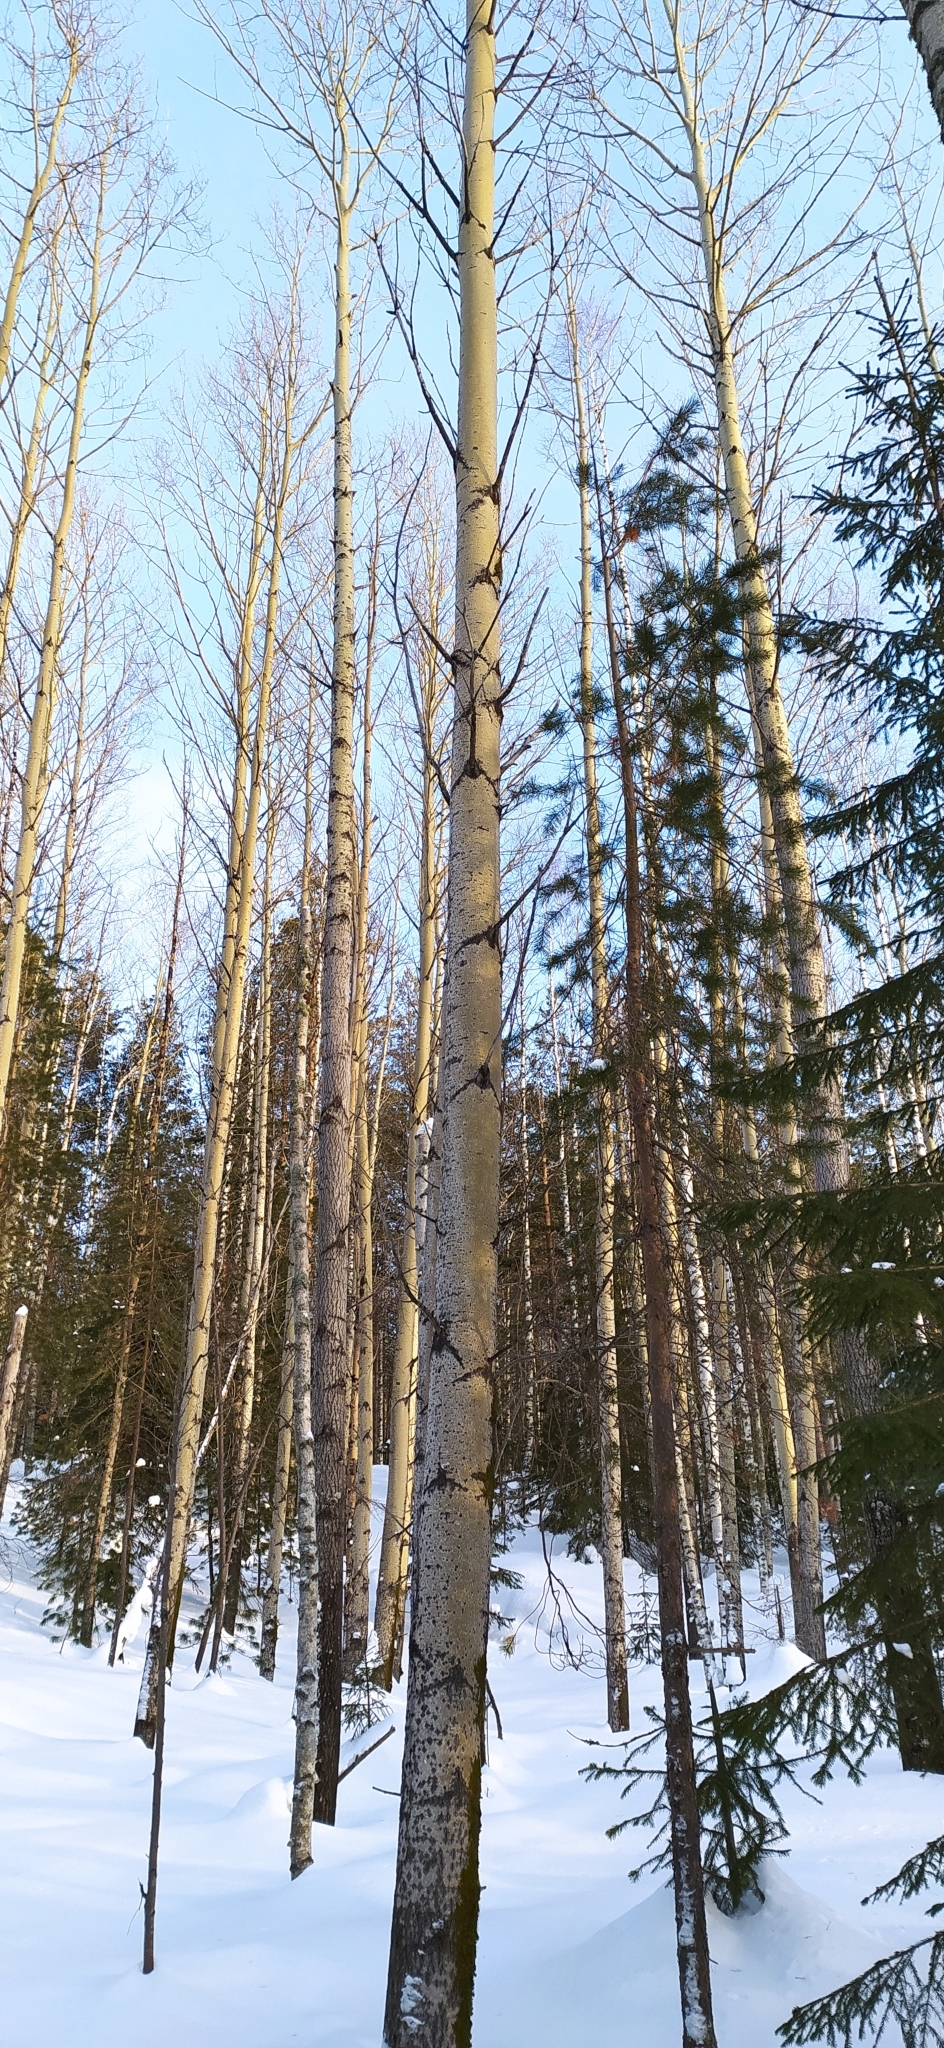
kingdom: Plantae
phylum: Tracheophyta
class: Magnoliopsida
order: Malpighiales
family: Salicaceae
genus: Populus
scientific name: Populus tremula
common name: European aspen
